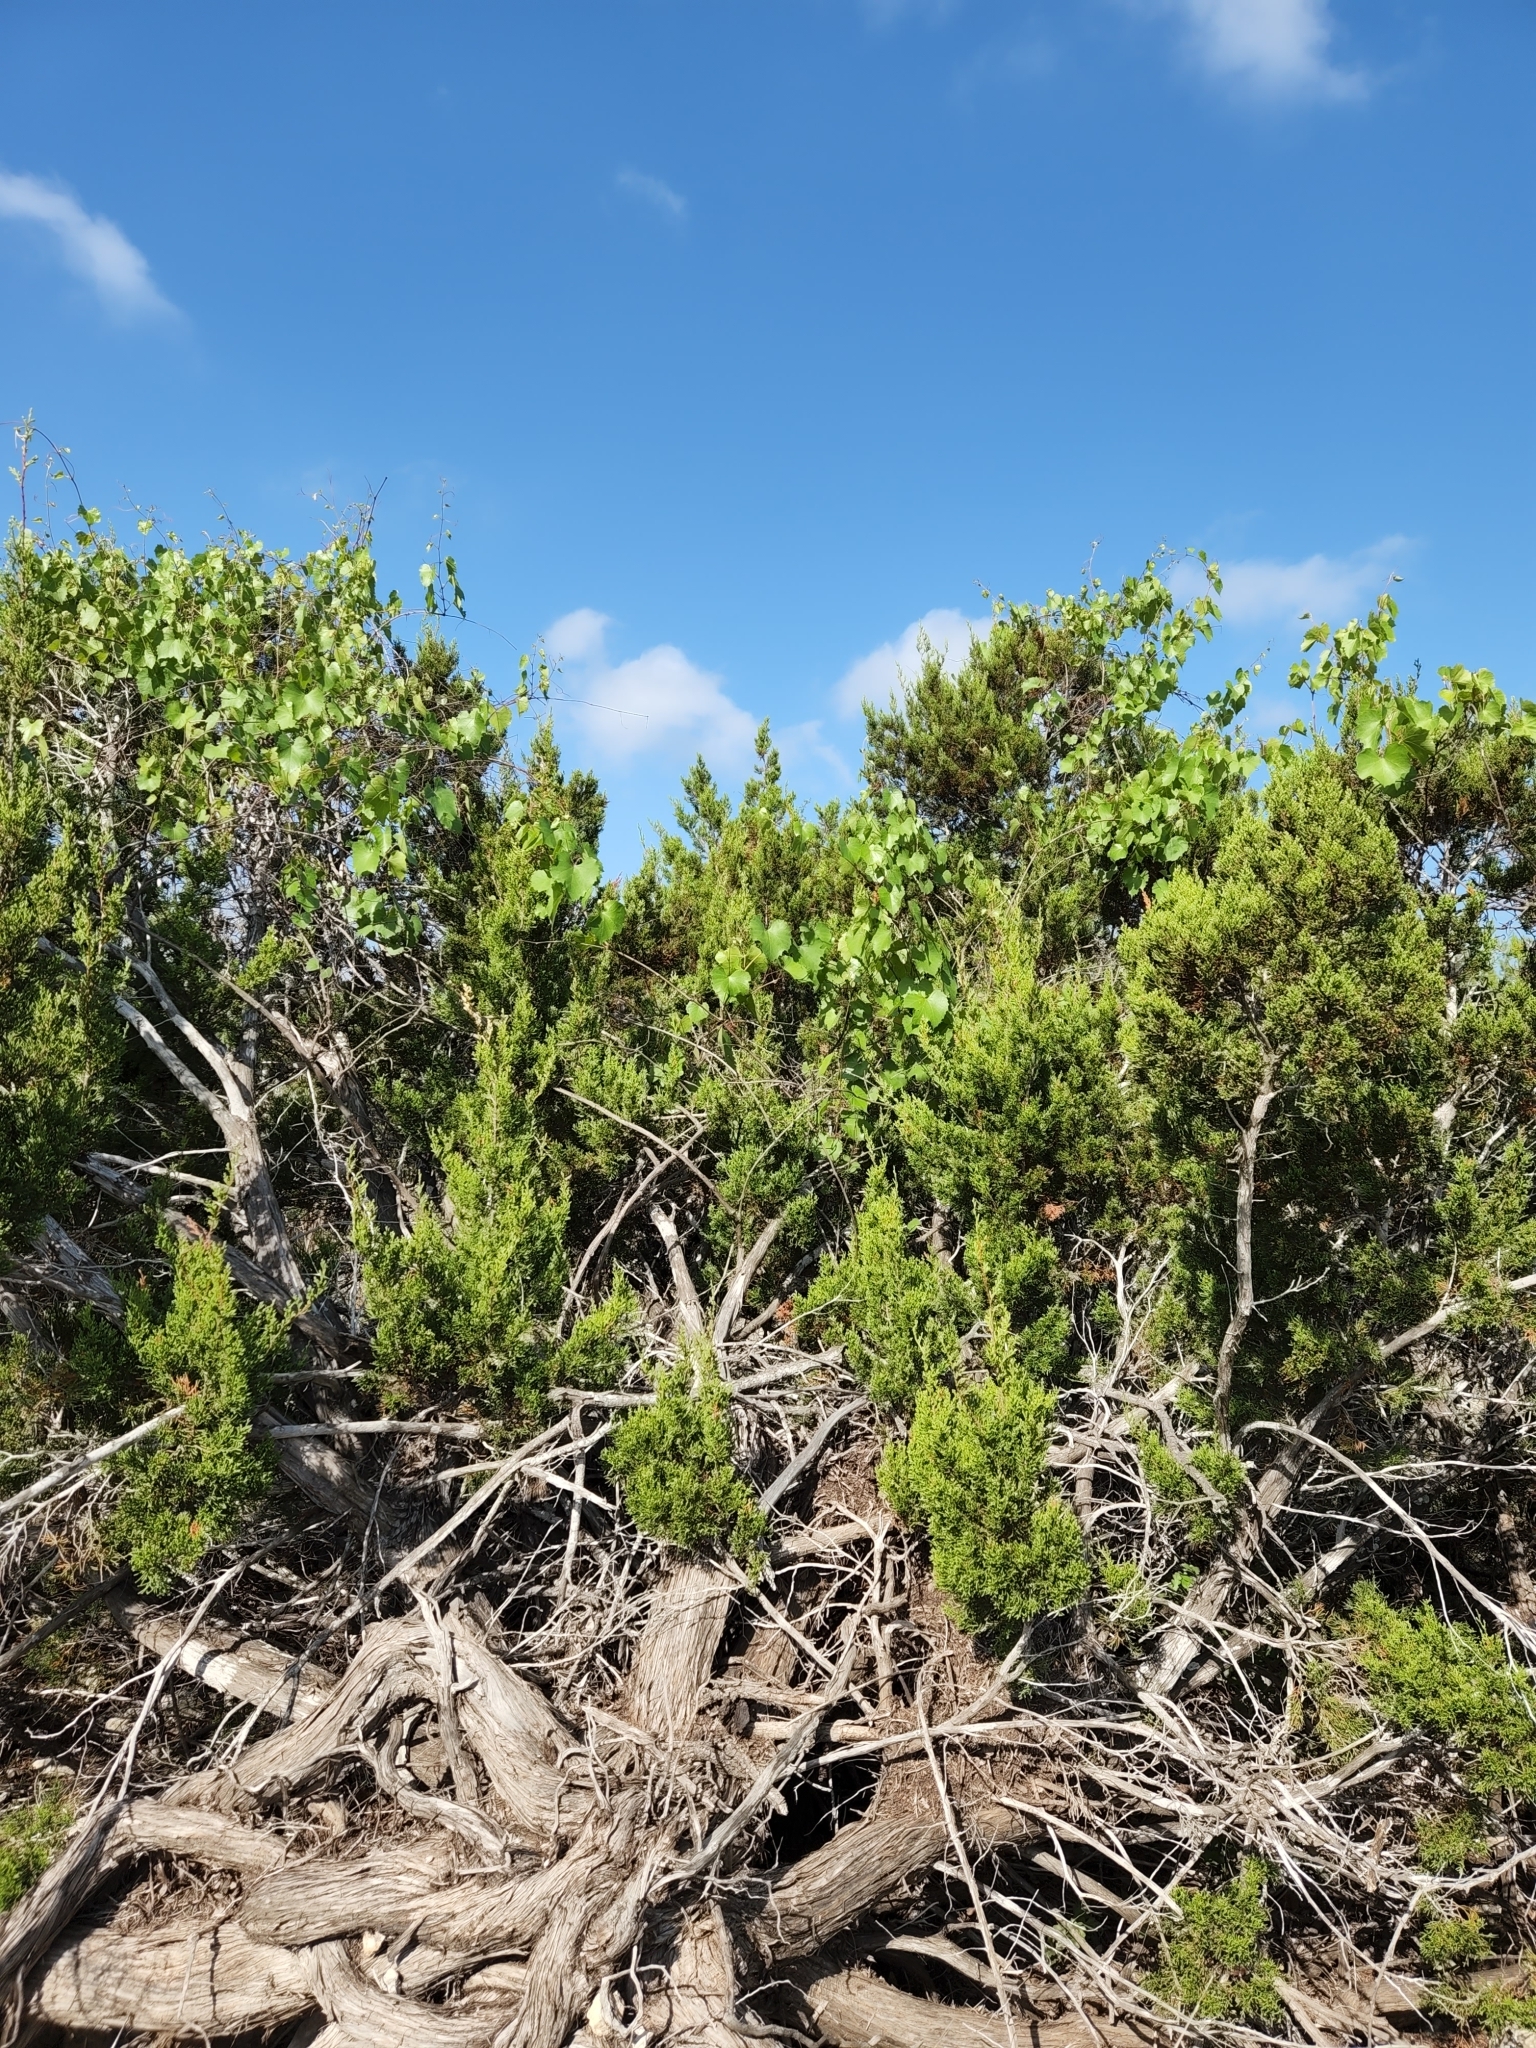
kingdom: Plantae
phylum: Tracheophyta
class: Magnoliopsida
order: Vitales
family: Vitaceae
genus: Vitis
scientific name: Vitis monticola
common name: Mountain grape
